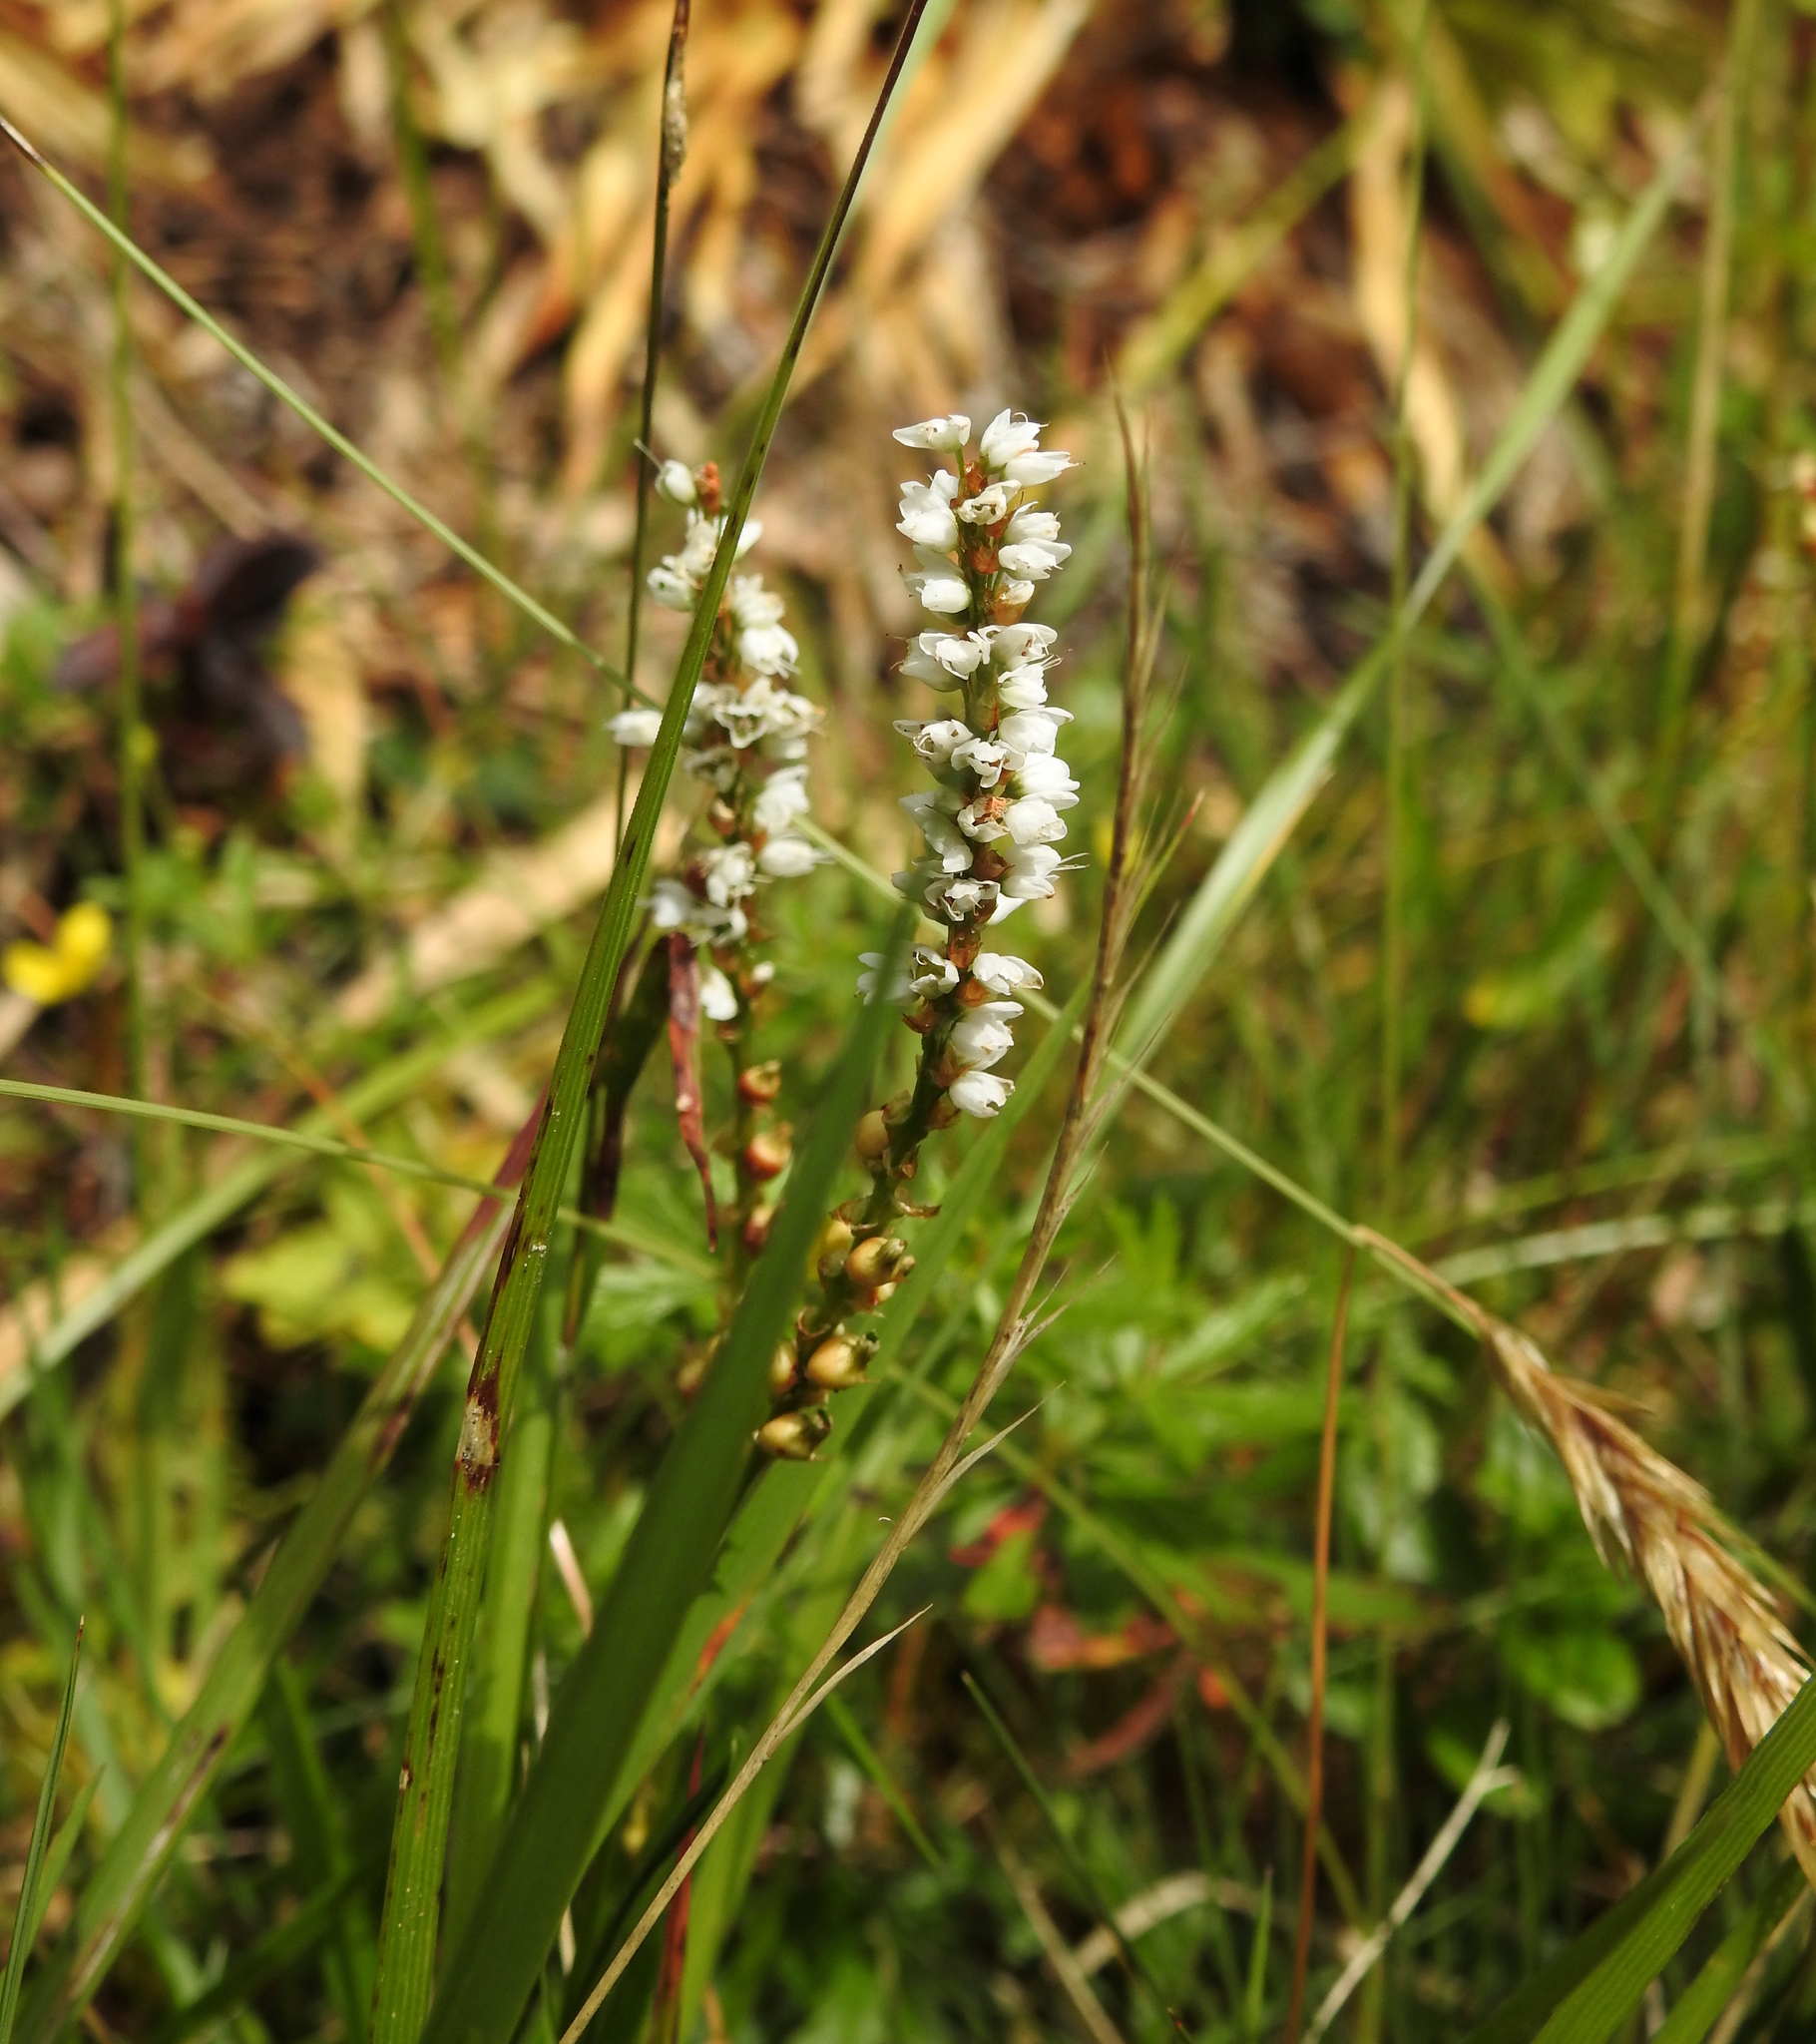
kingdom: Plantae
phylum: Tracheophyta
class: Magnoliopsida
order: Caryophyllales
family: Polygonaceae
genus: Bistorta
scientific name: Bistorta vivipara
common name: Alpine bistort
